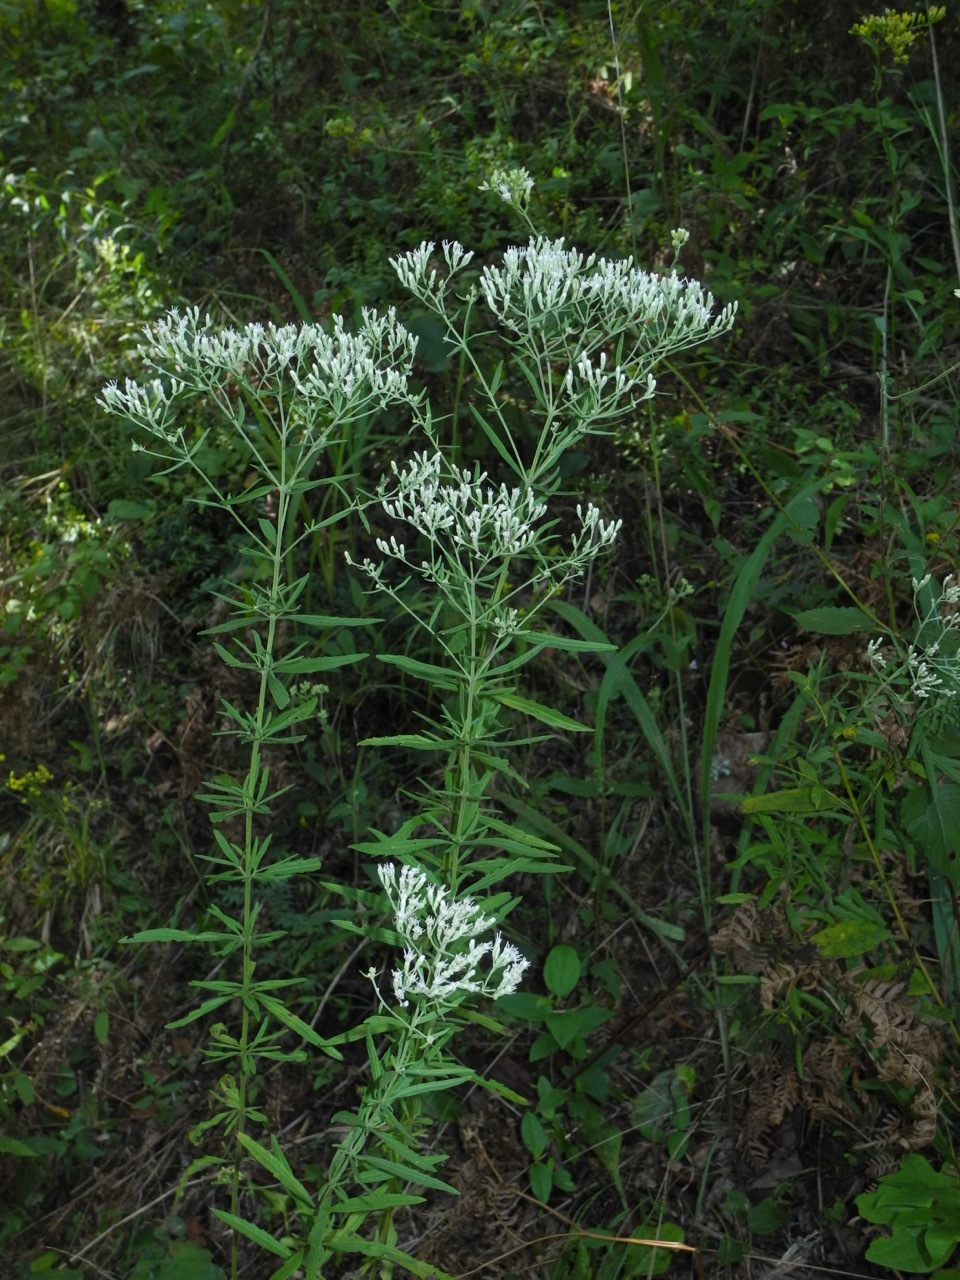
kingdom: Plantae
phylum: Tracheophyta
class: Magnoliopsida
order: Asterales
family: Asteraceae
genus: Eupatorium
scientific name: Eupatorium torreyanum
